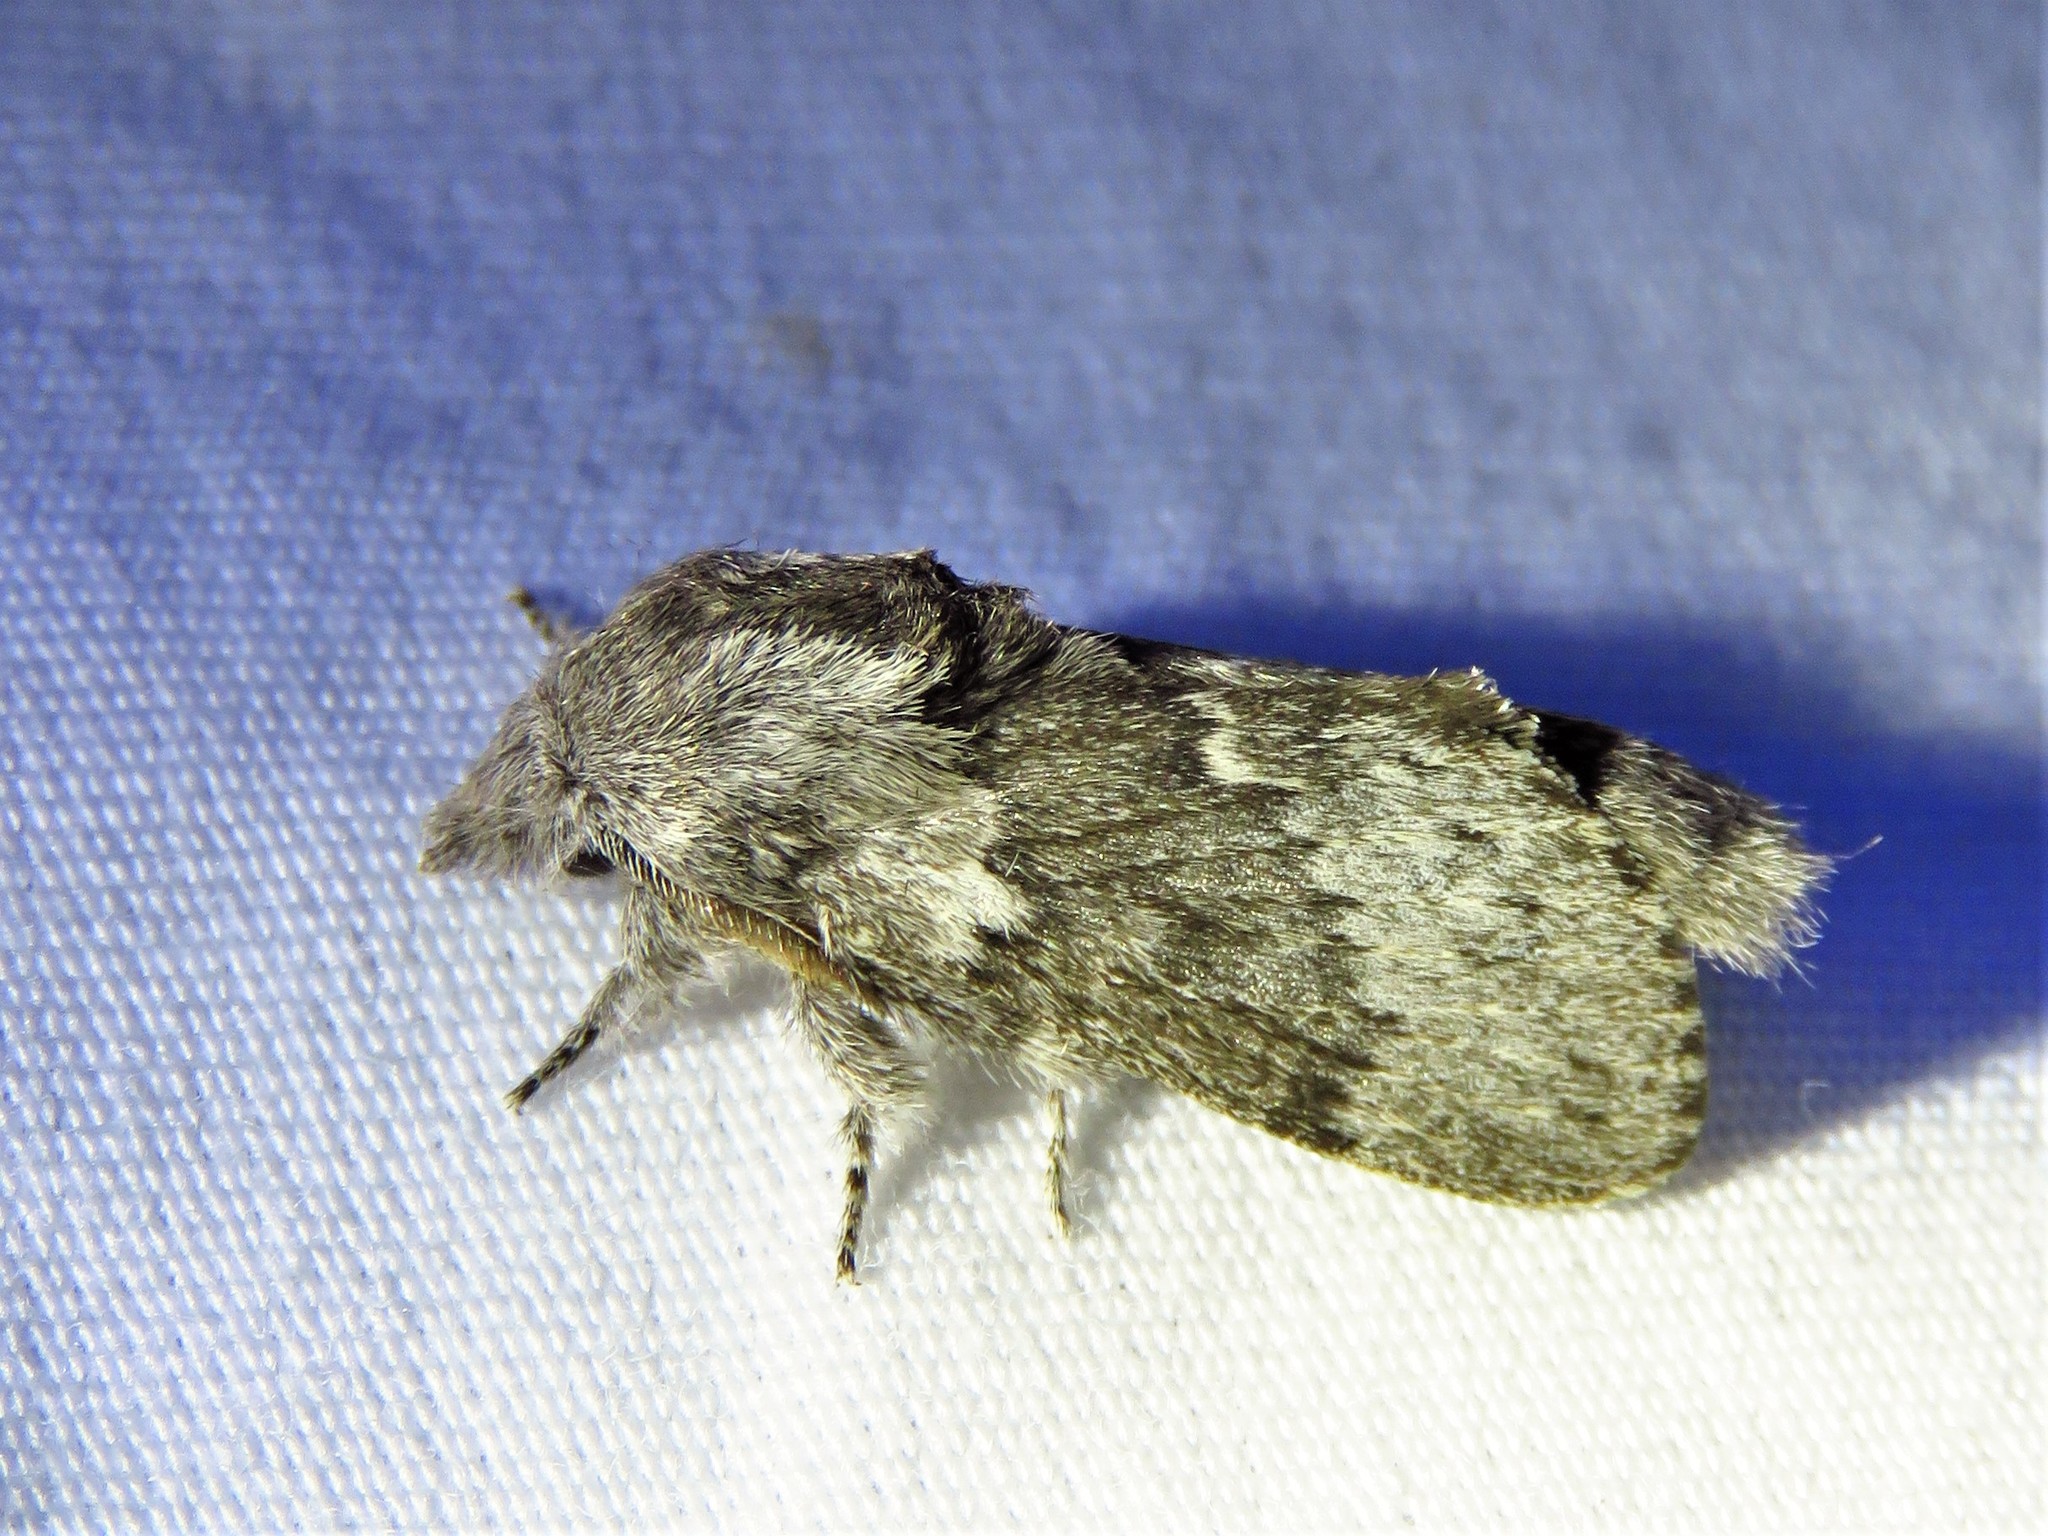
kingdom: Animalia
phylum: Arthropoda
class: Insecta
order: Lepidoptera
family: Lasiocampidae
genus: Heteropacha
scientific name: Heteropacha rileyana
